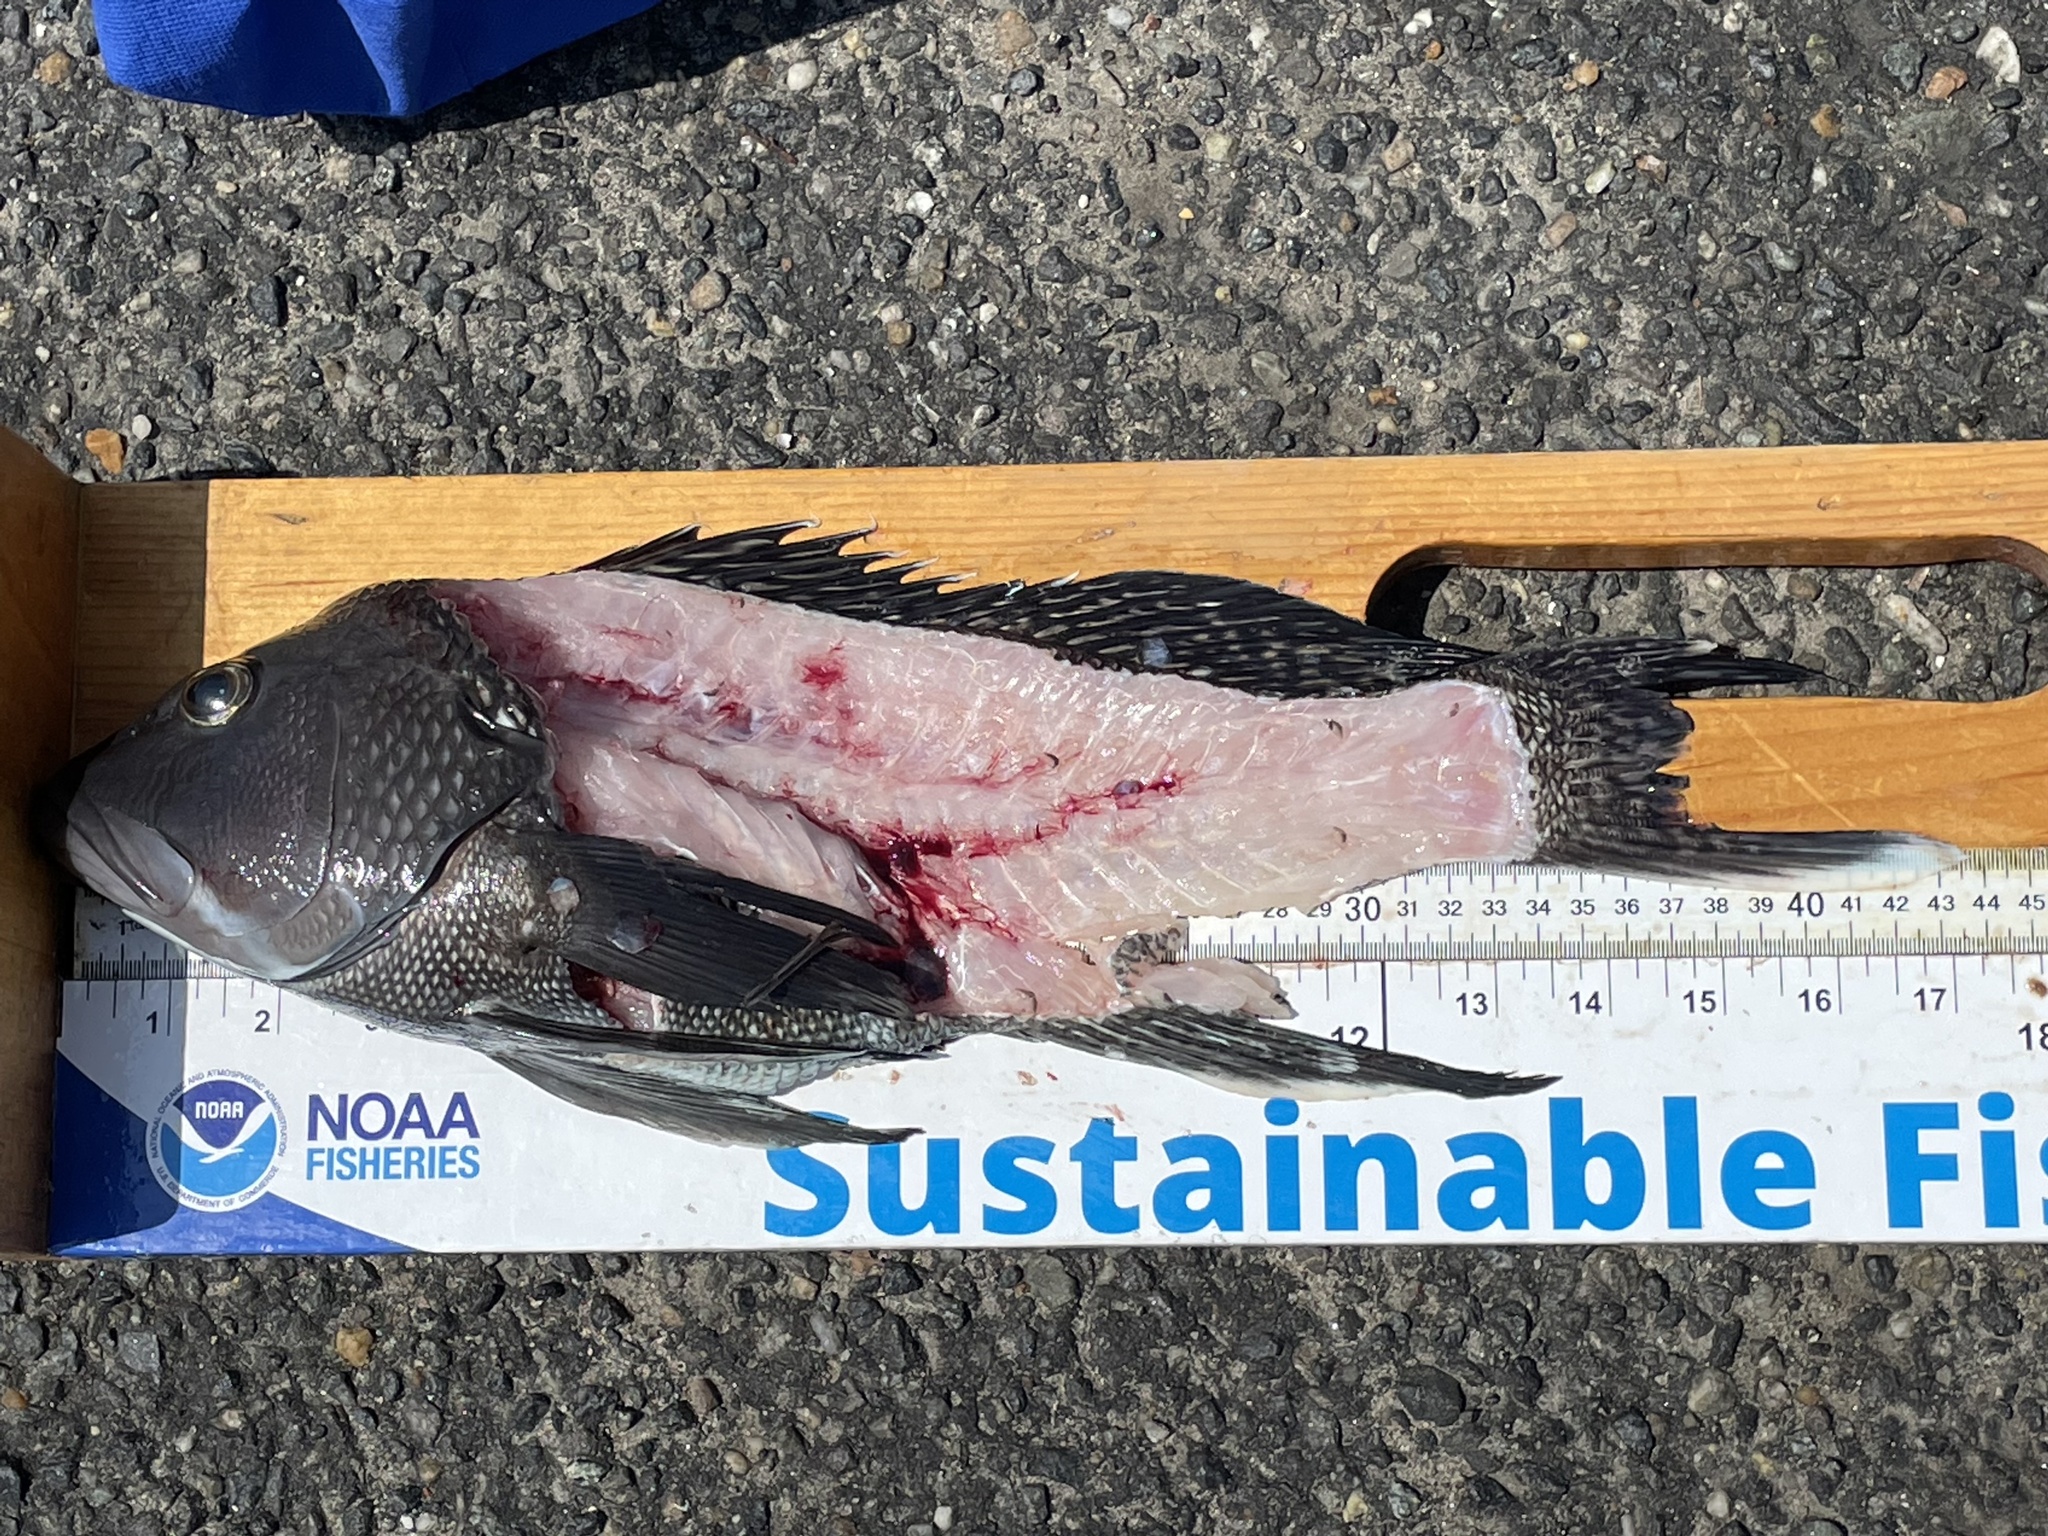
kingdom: Animalia
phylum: Chordata
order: Perciformes
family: Serranidae
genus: Centropristis
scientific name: Centropristis striata
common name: Black sea bass
